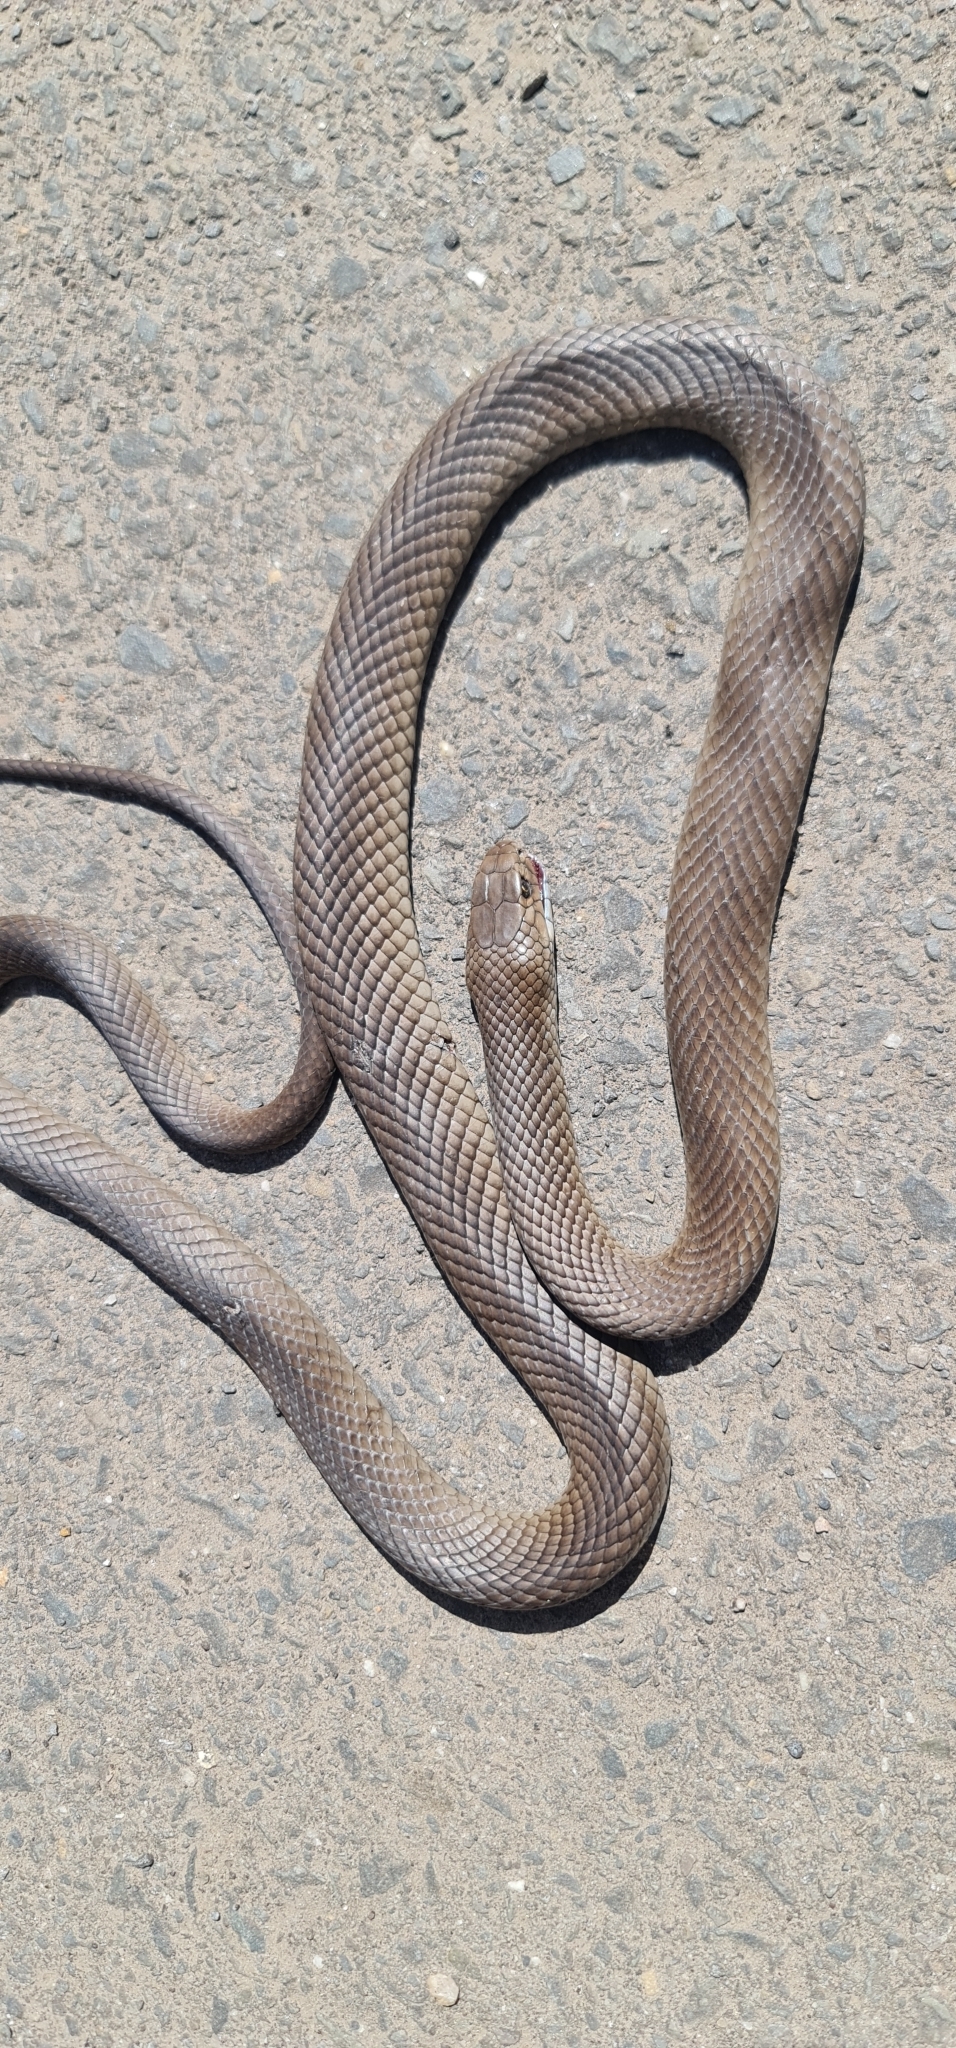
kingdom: Animalia
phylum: Chordata
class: Squamata
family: Elapidae
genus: Pseudonaja
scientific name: Pseudonaja textilis
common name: Eastern brown snake
